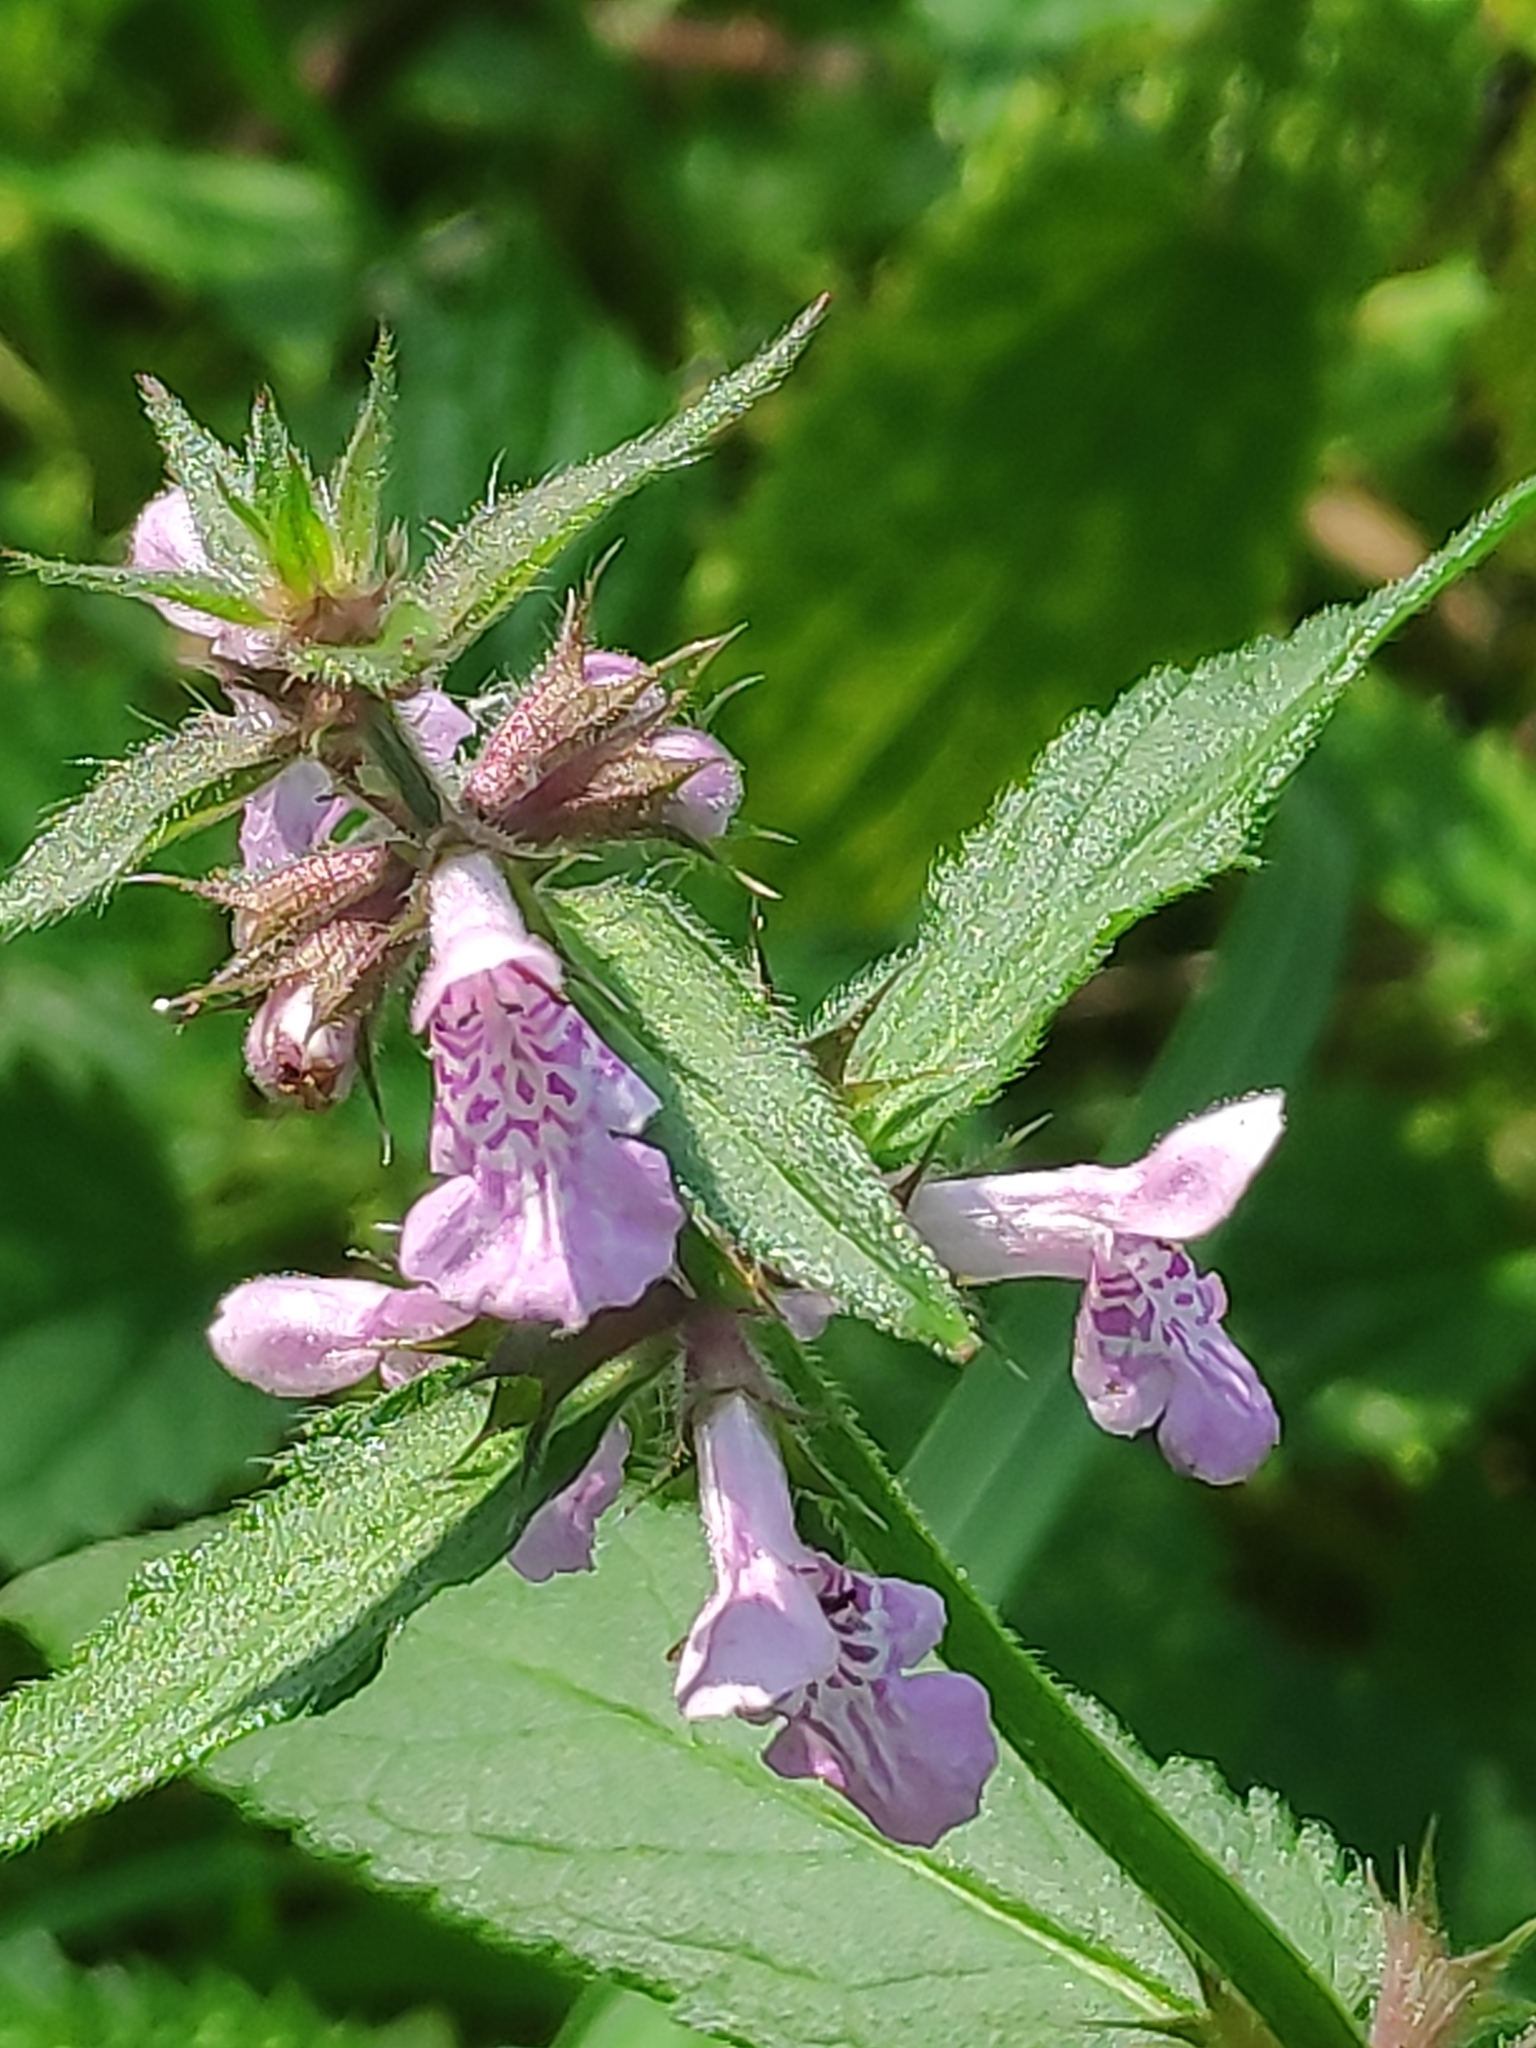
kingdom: Plantae
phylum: Tracheophyta
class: Magnoliopsida
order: Lamiales
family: Lamiaceae
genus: Stachys
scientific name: Stachys palustris
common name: Marsh woundwort
